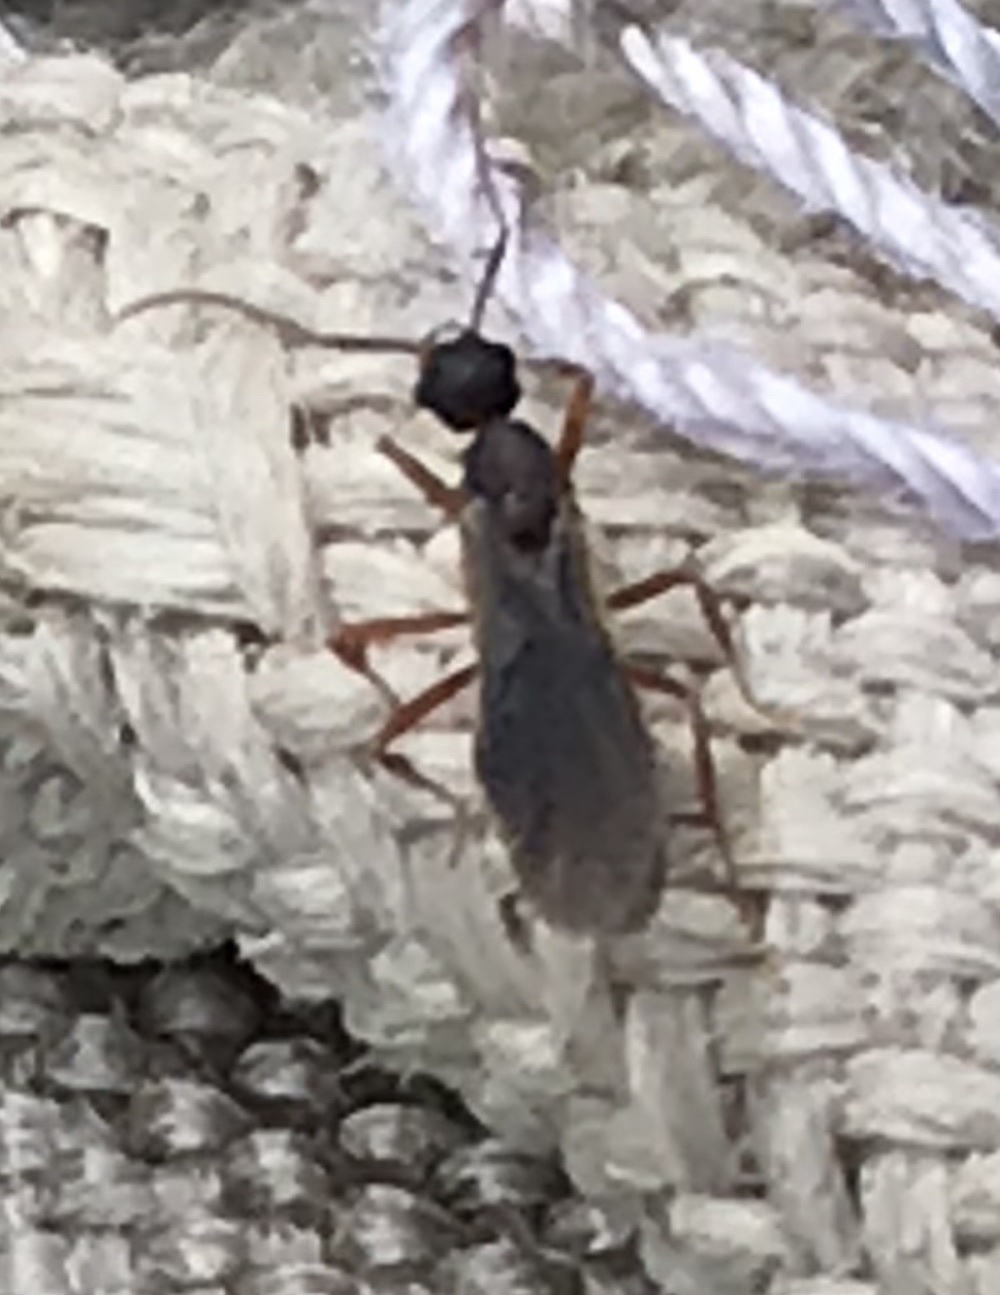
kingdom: Animalia
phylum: Arthropoda
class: Insecta
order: Hymenoptera
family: Formicidae
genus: Trachymyrmex
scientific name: Trachymyrmex septentrionalis
